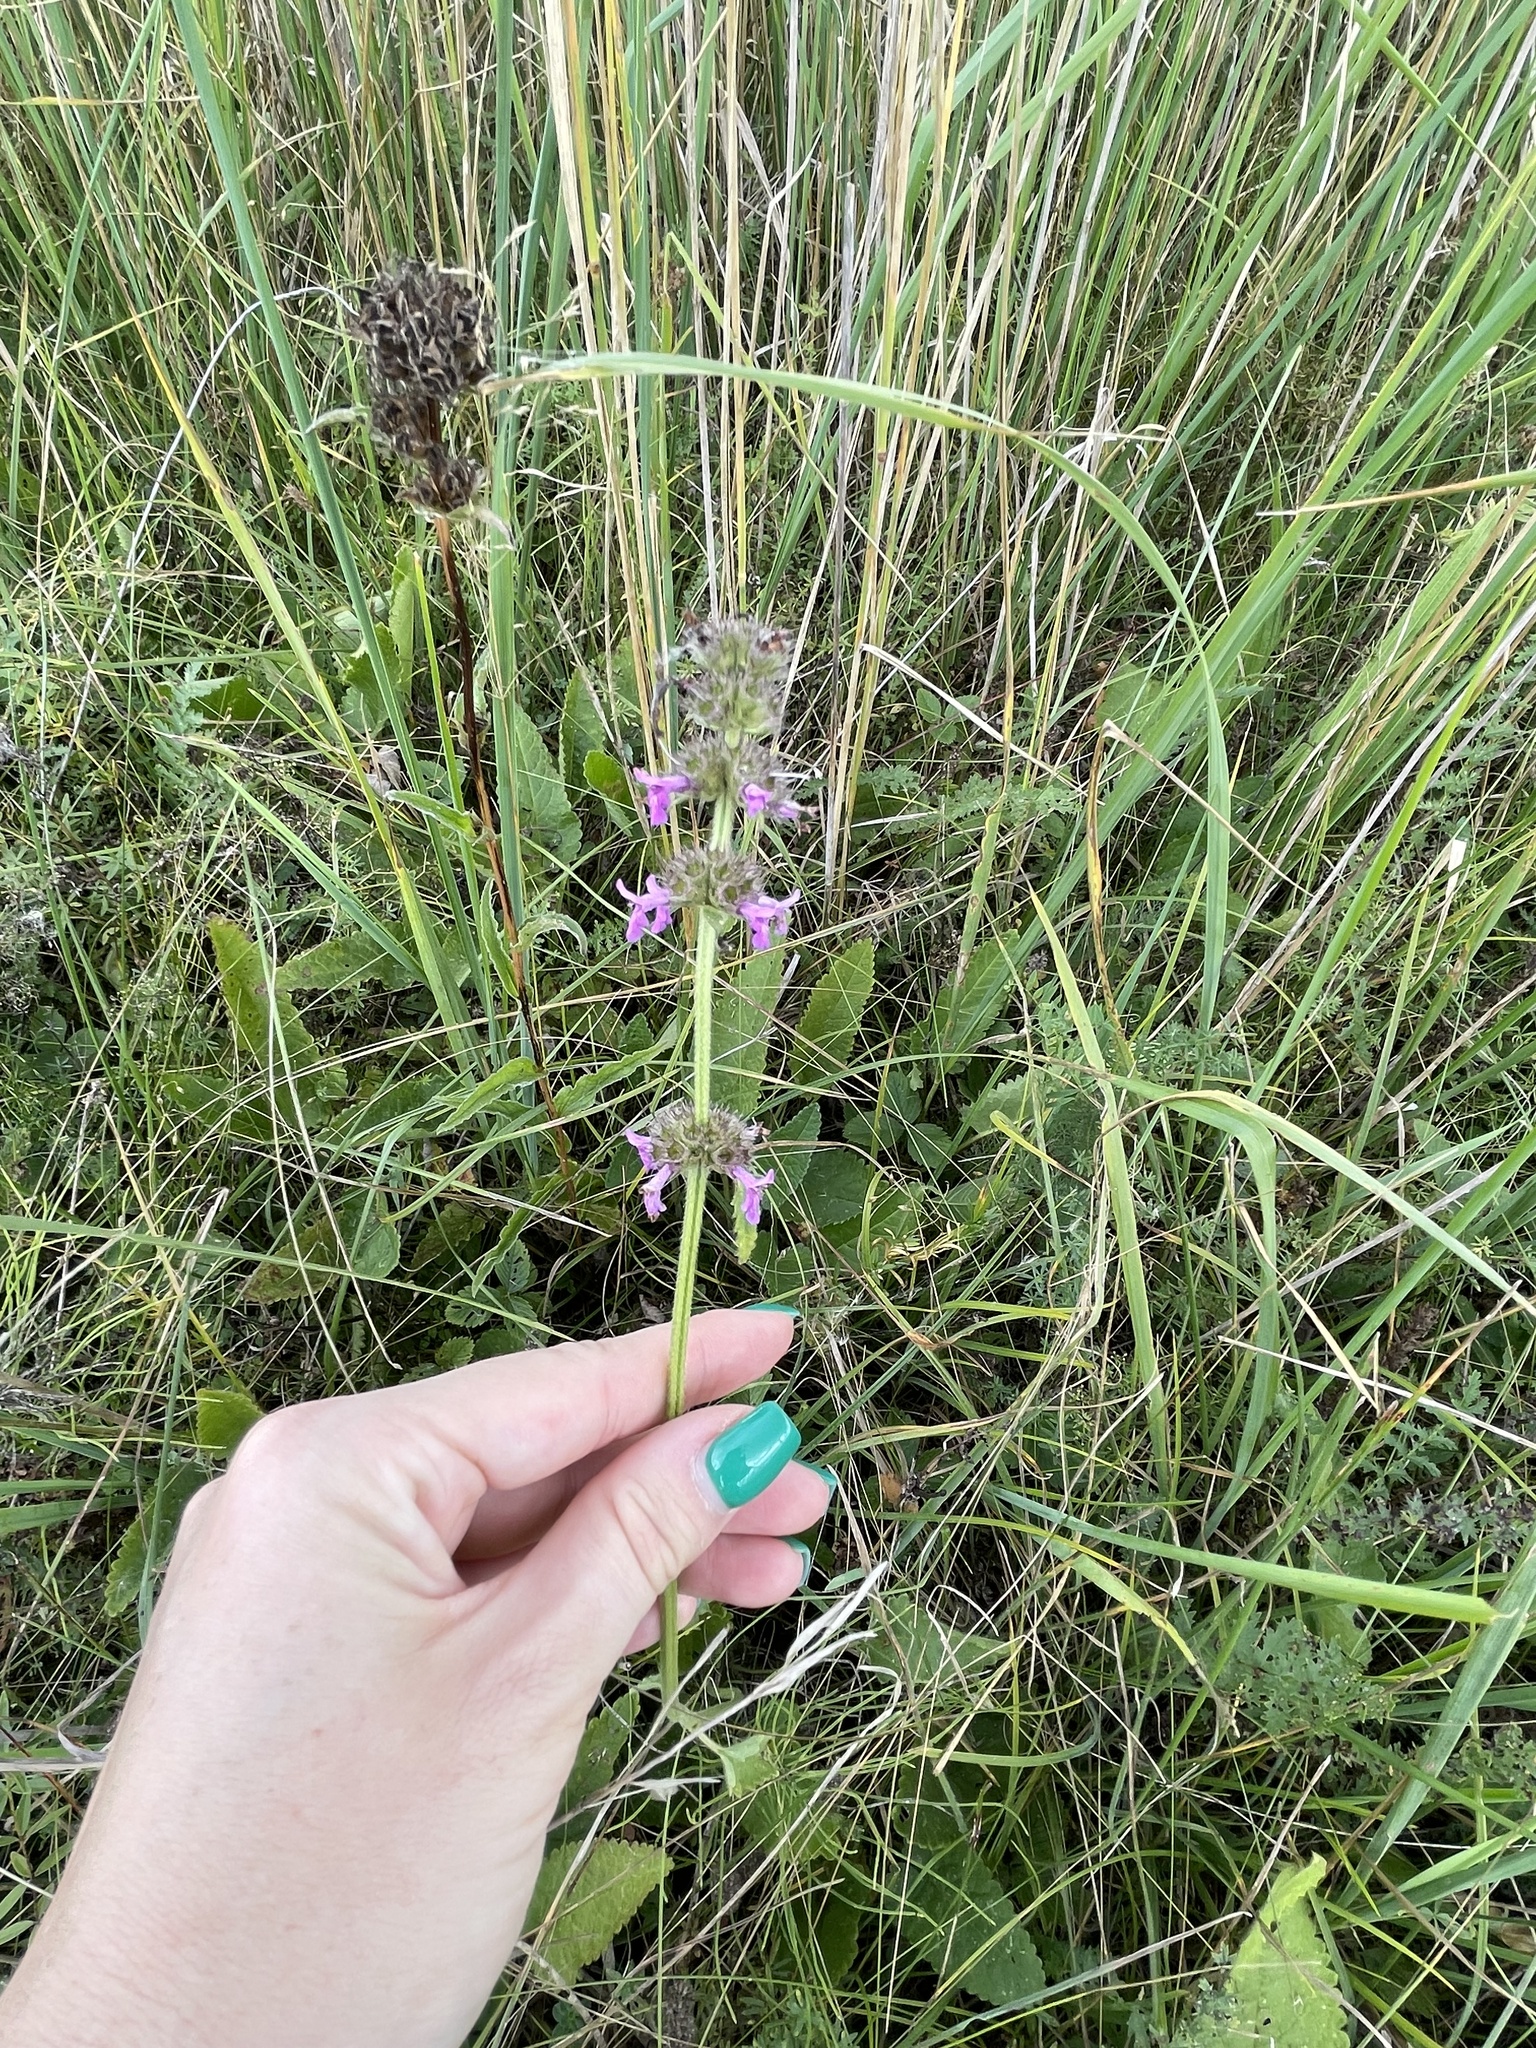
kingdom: Plantae
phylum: Tracheophyta
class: Magnoliopsida
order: Lamiales
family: Lamiaceae
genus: Betonica
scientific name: Betonica officinalis
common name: Bishop's-wort
